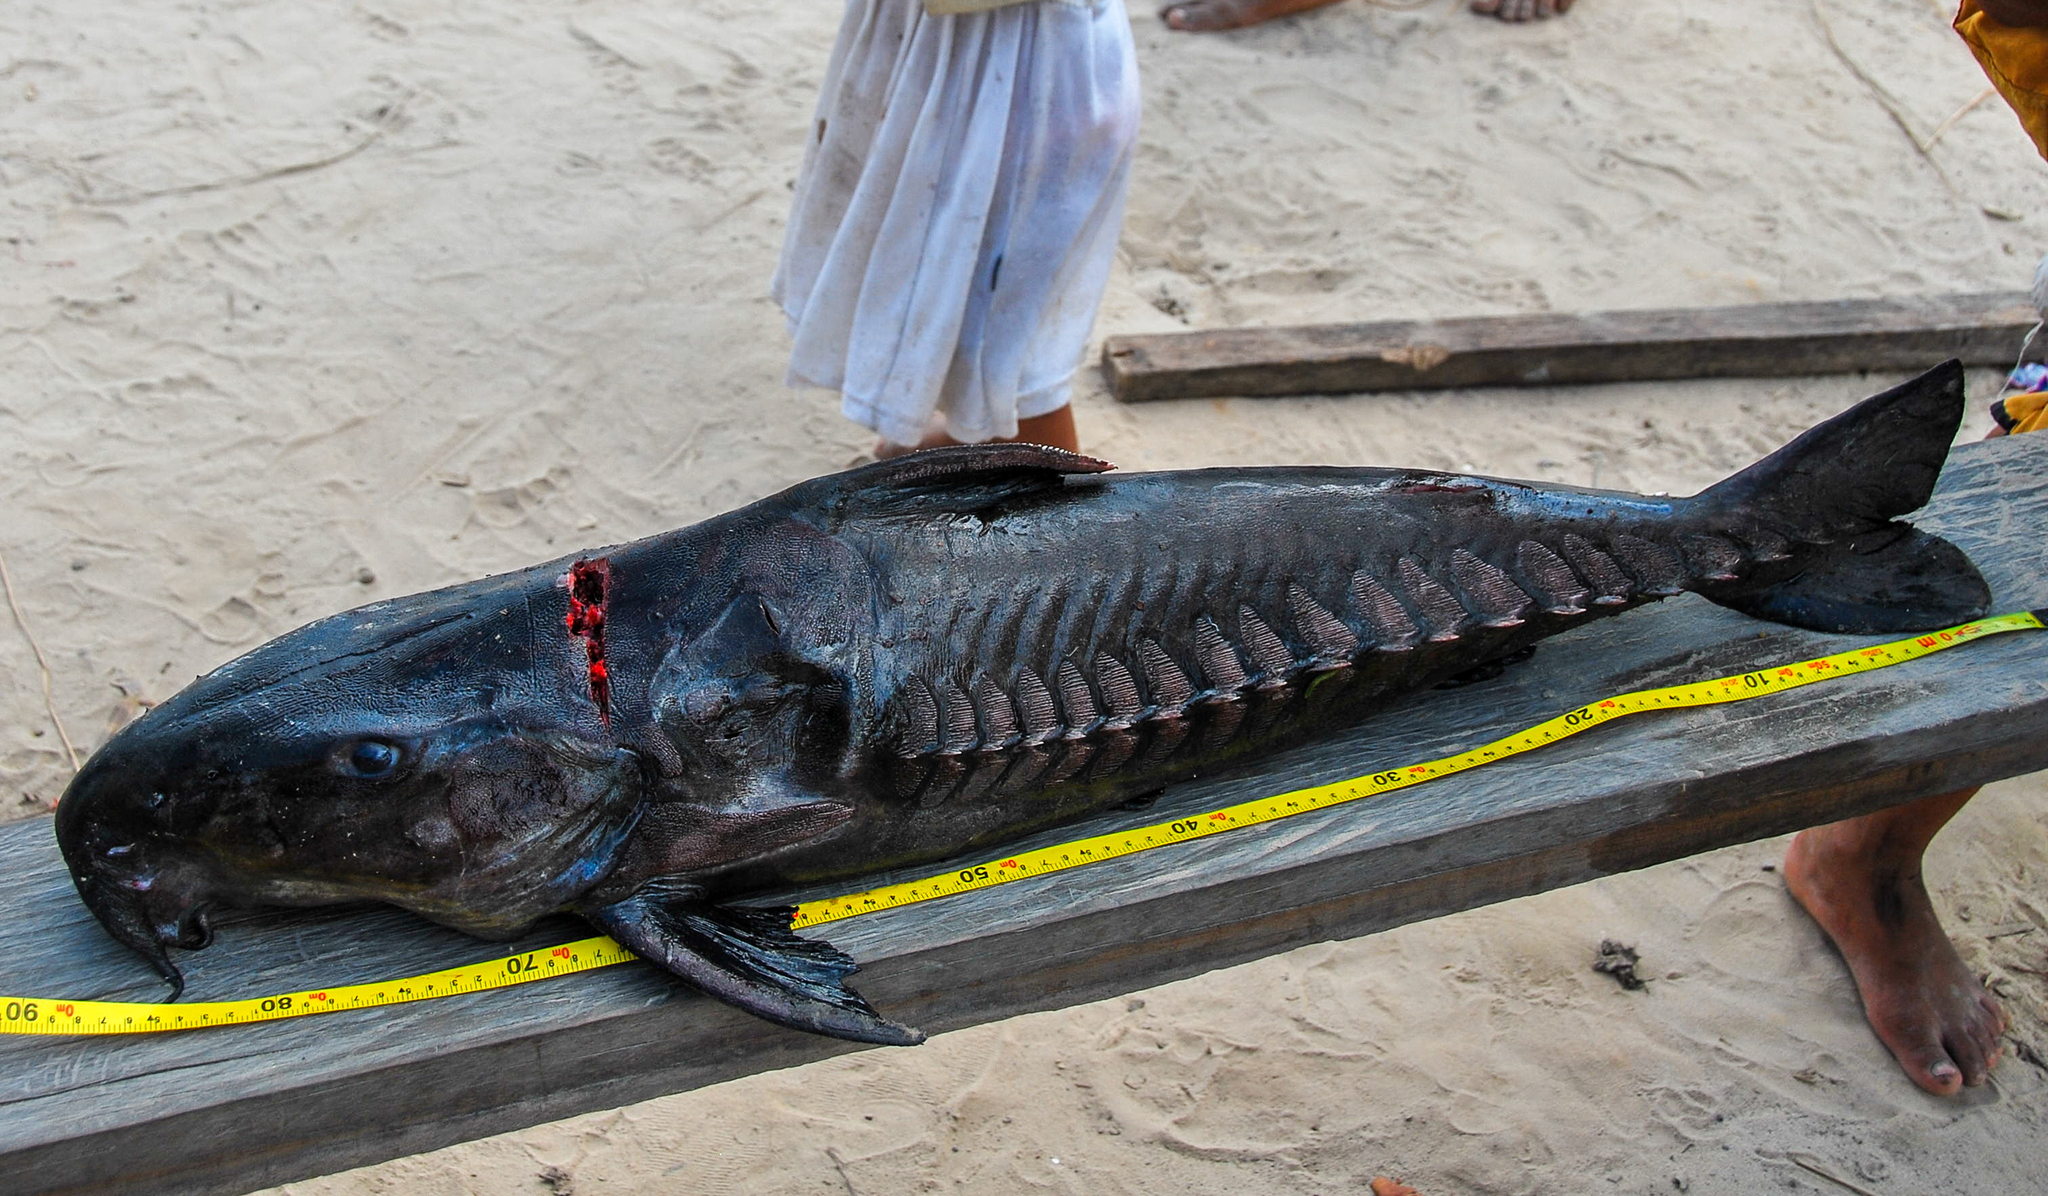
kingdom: Animalia
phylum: Chordata
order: Siluriformes
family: Doradidae
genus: Oxydoras
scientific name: Oxydoras niger
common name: Thorny catfish
